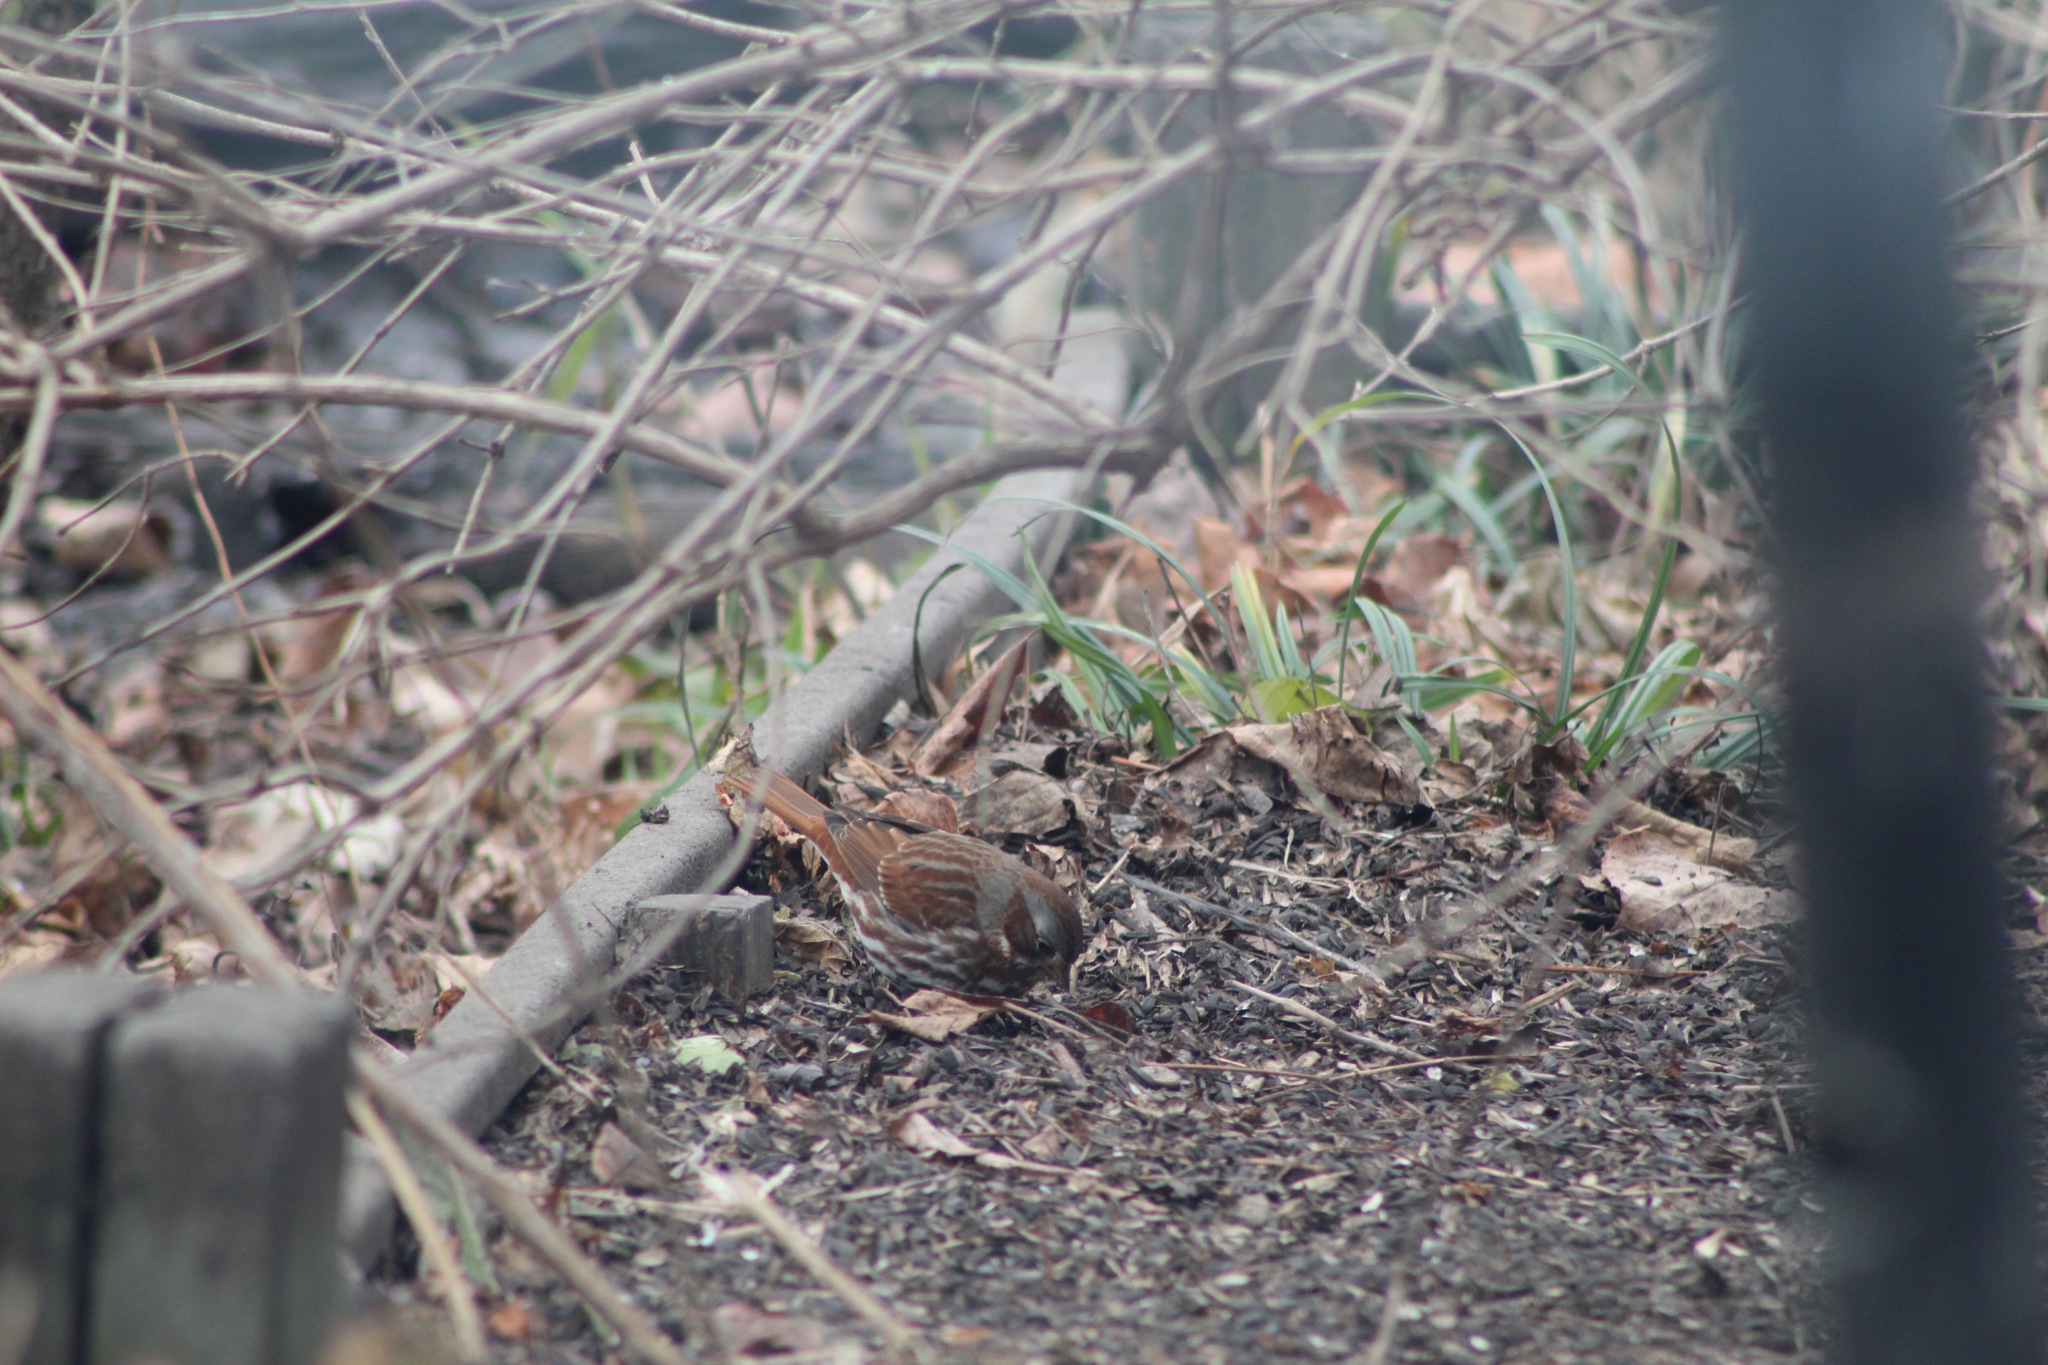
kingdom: Animalia
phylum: Chordata
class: Aves
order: Passeriformes
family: Passerellidae
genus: Passerella
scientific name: Passerella iliaca
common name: Fox sparrow
